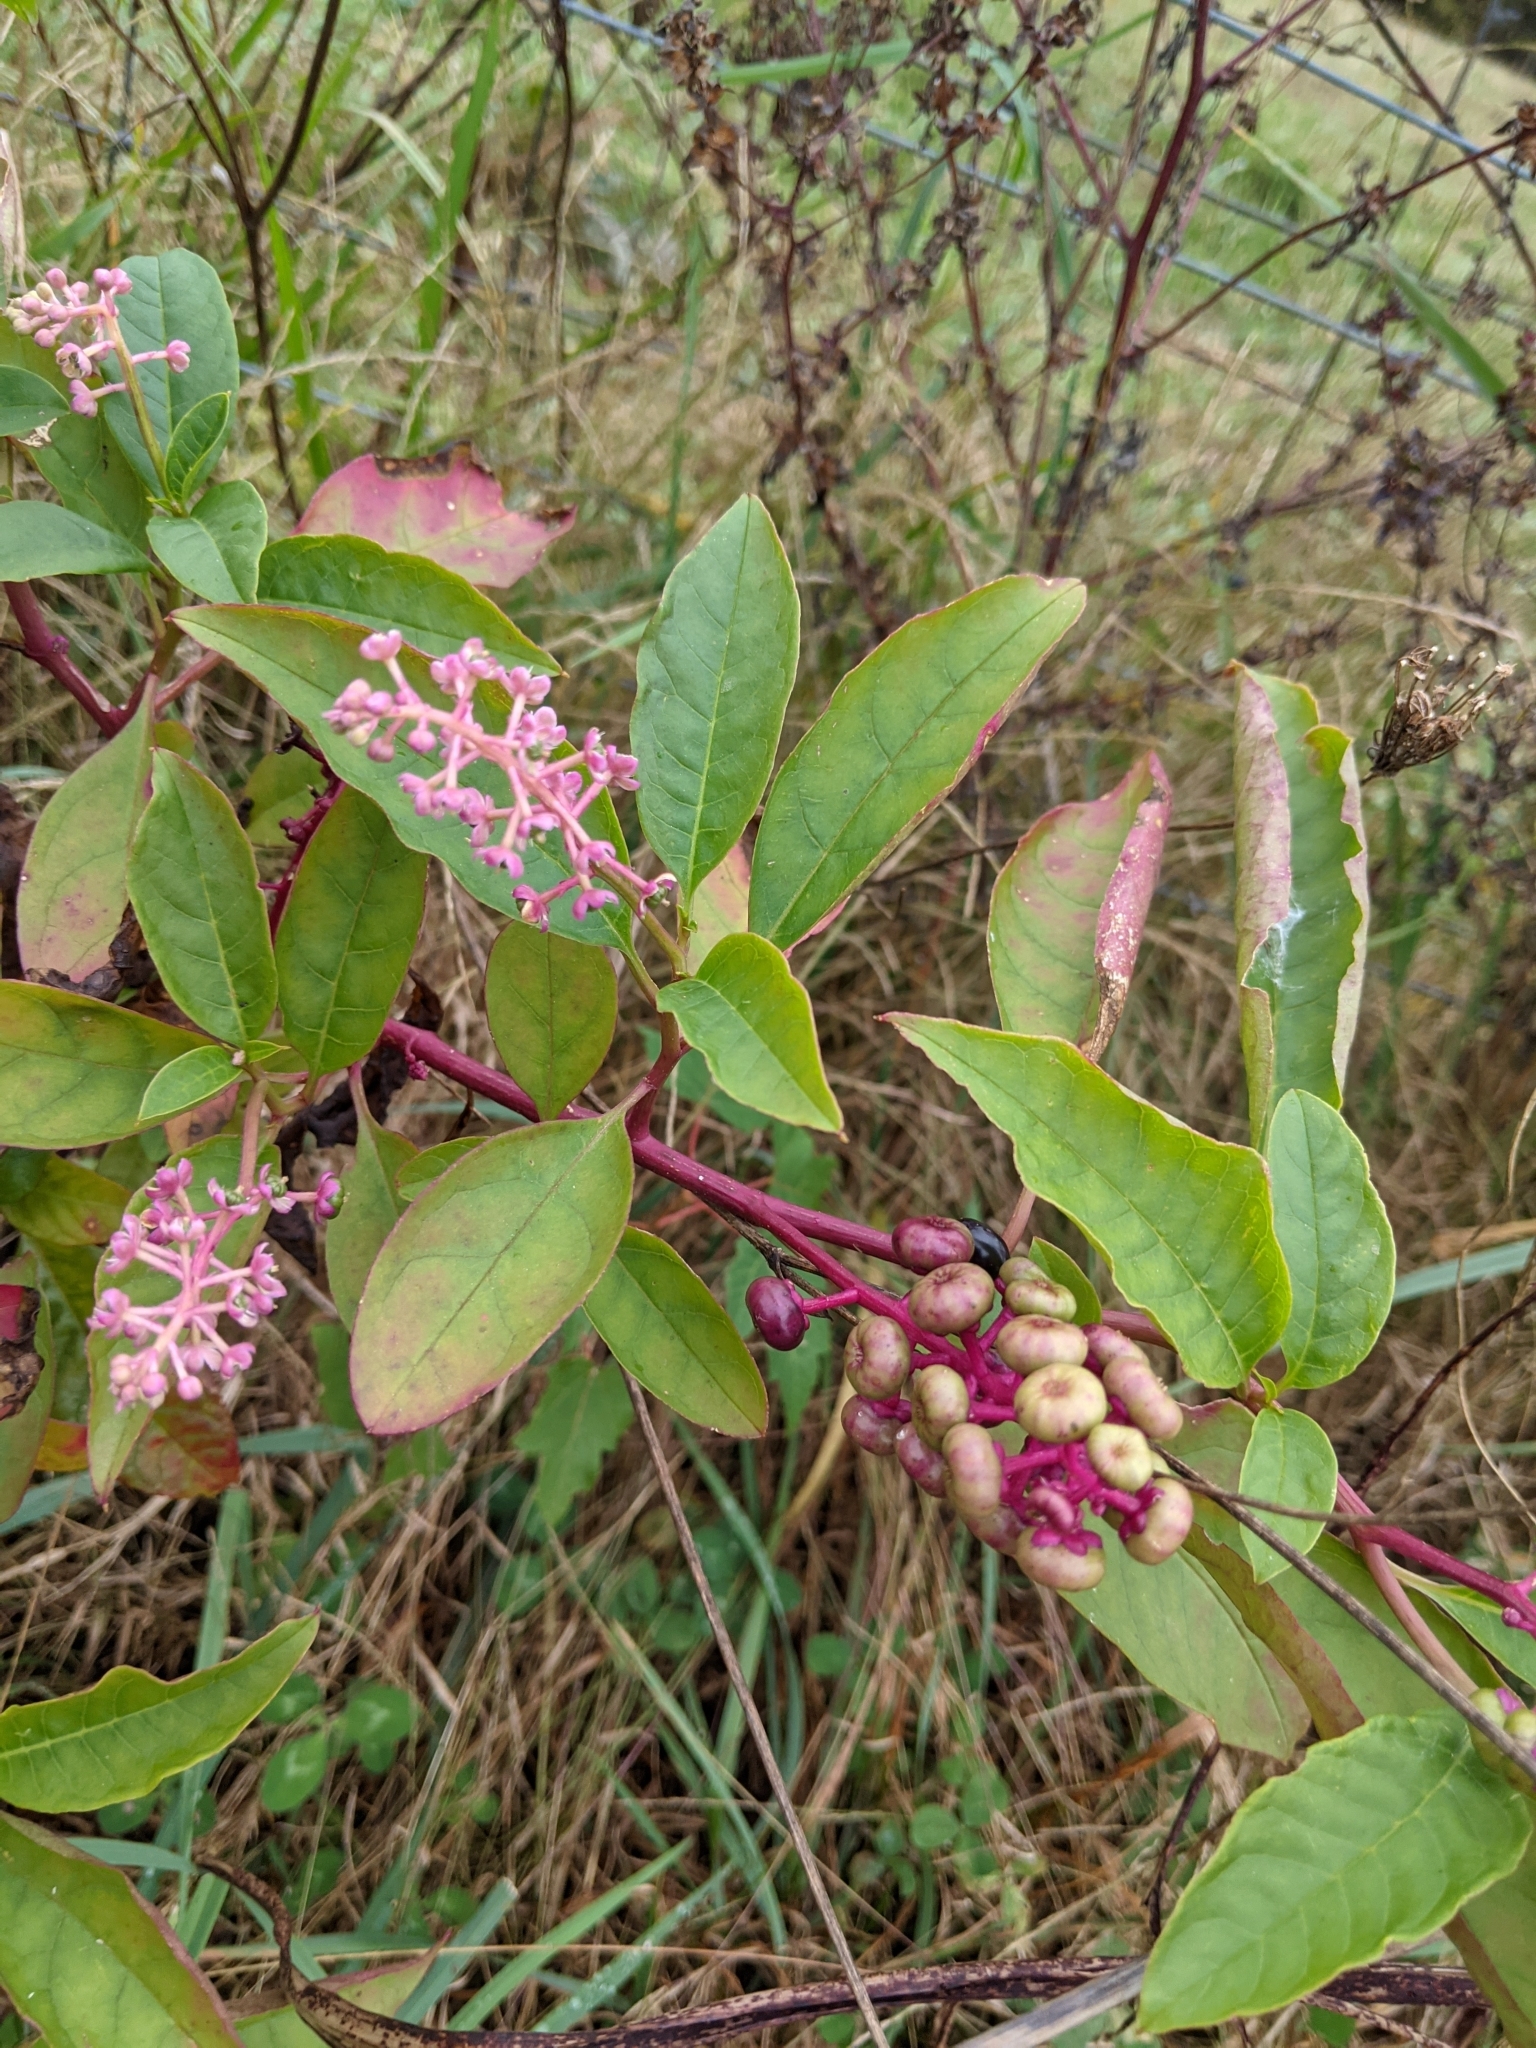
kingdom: Plantae
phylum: Tracheophyta
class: Magnoliopsida
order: Caryophyllales
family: Phytolaccaceae
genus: Phytolacca
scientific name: Phytolacca americana
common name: American pokeweed
